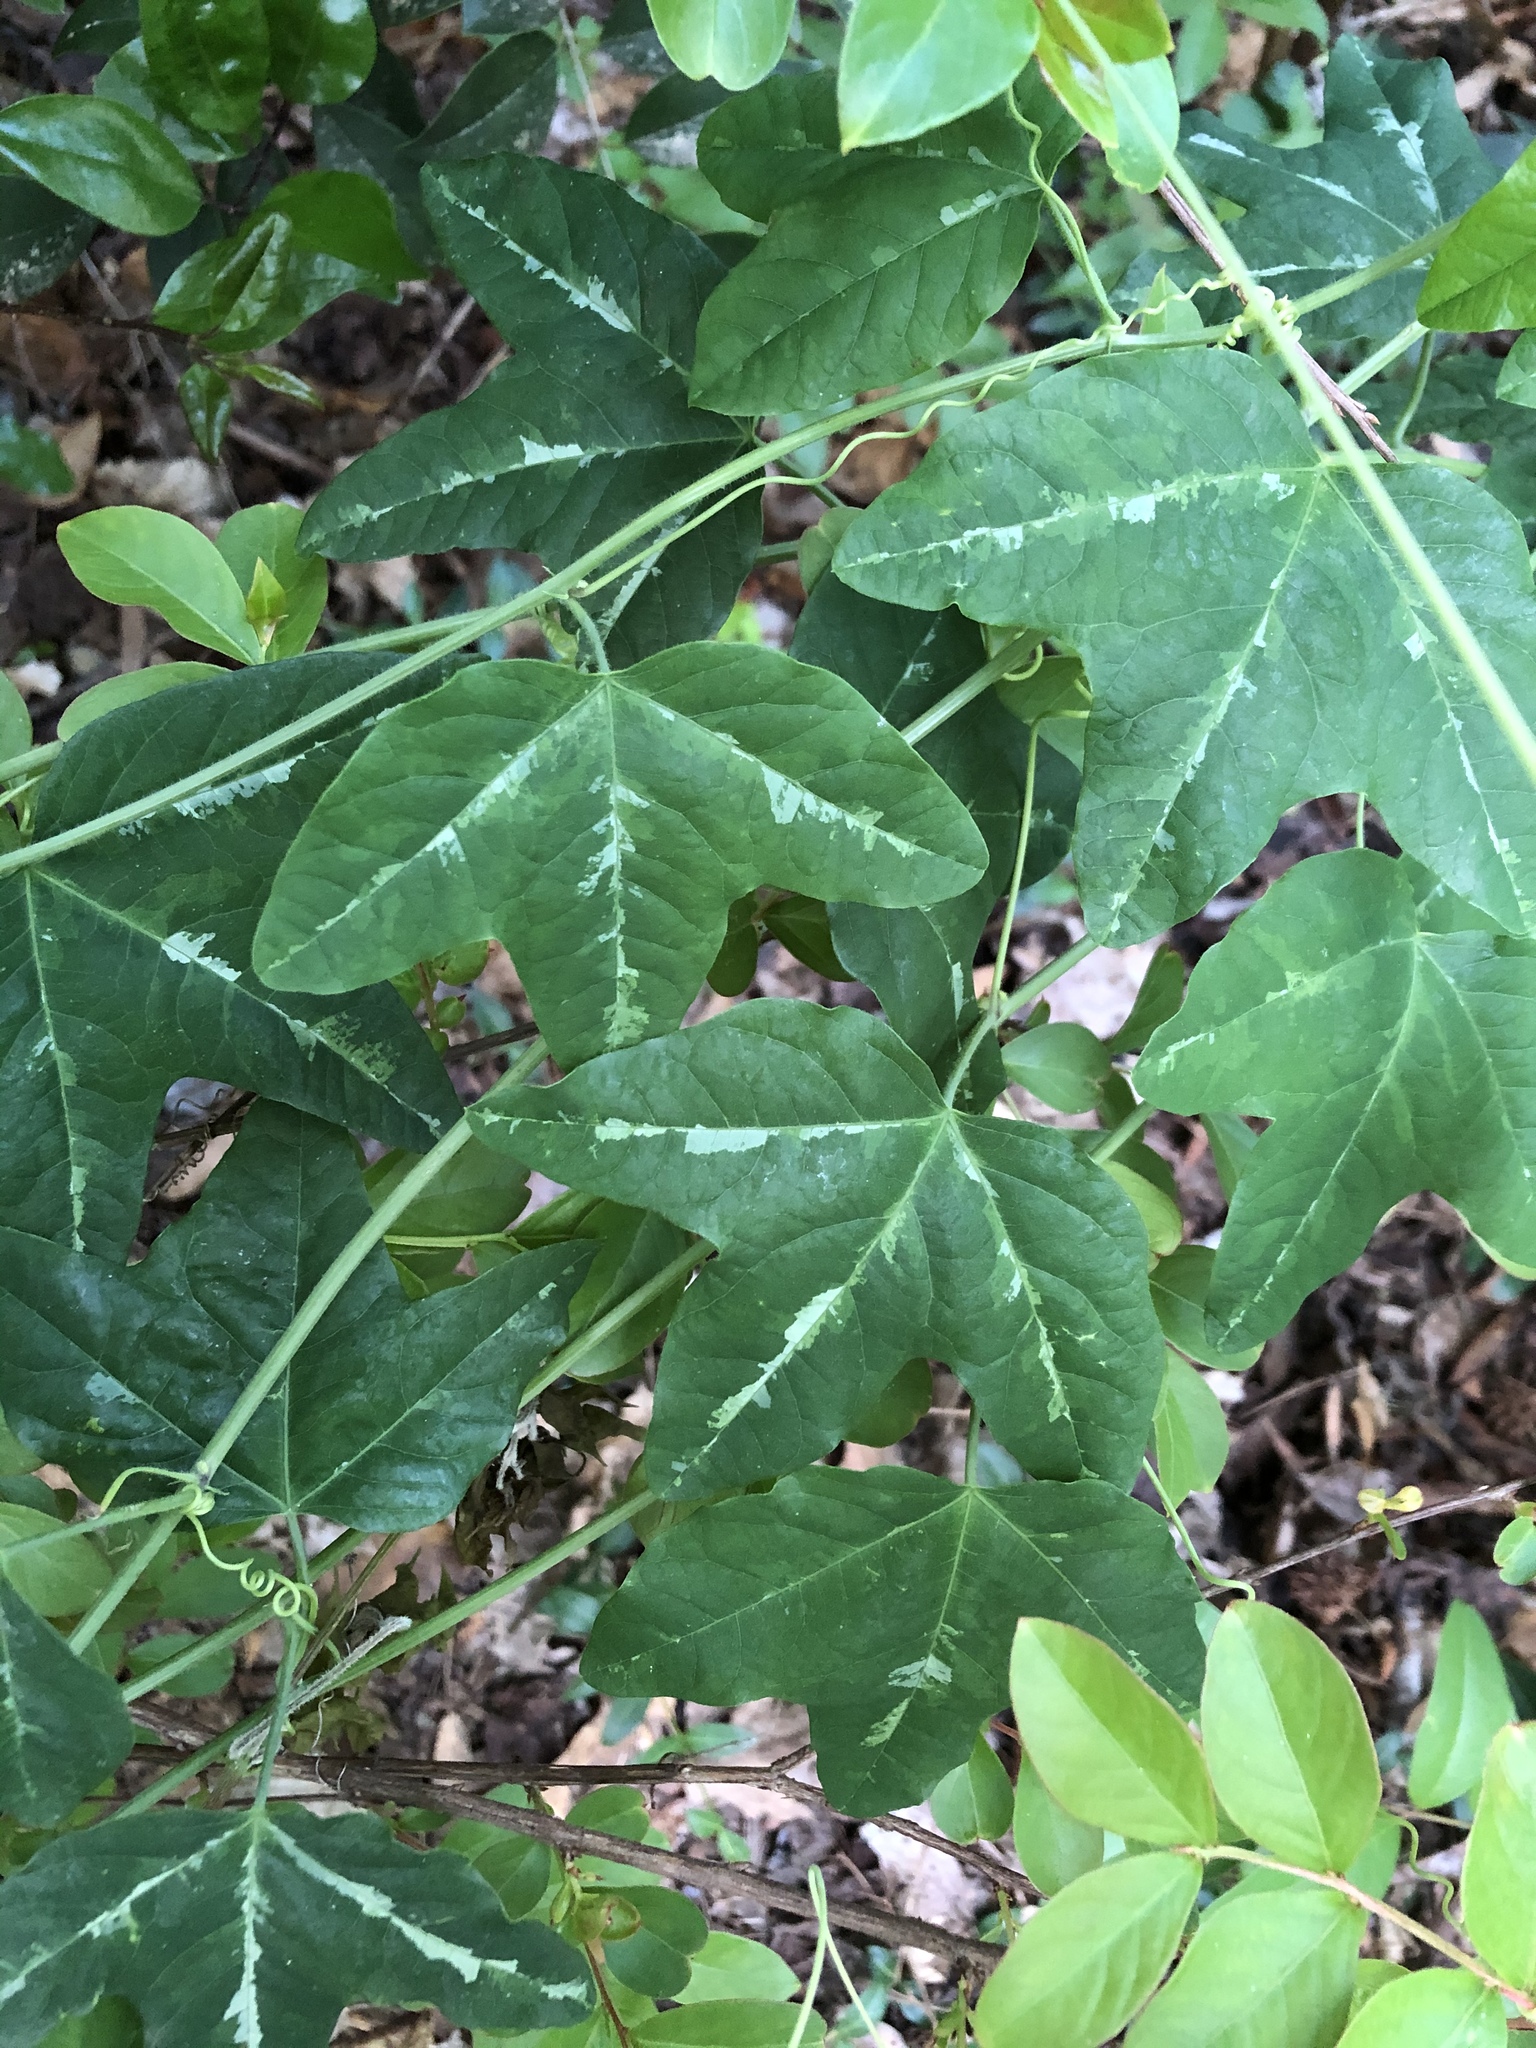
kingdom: Plantae
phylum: Tracheophyta
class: Magnoliopsida
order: Malpighiales
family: Passifloraceae
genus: Passiflora
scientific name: Passiflora lutea
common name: Yellow passionflower
